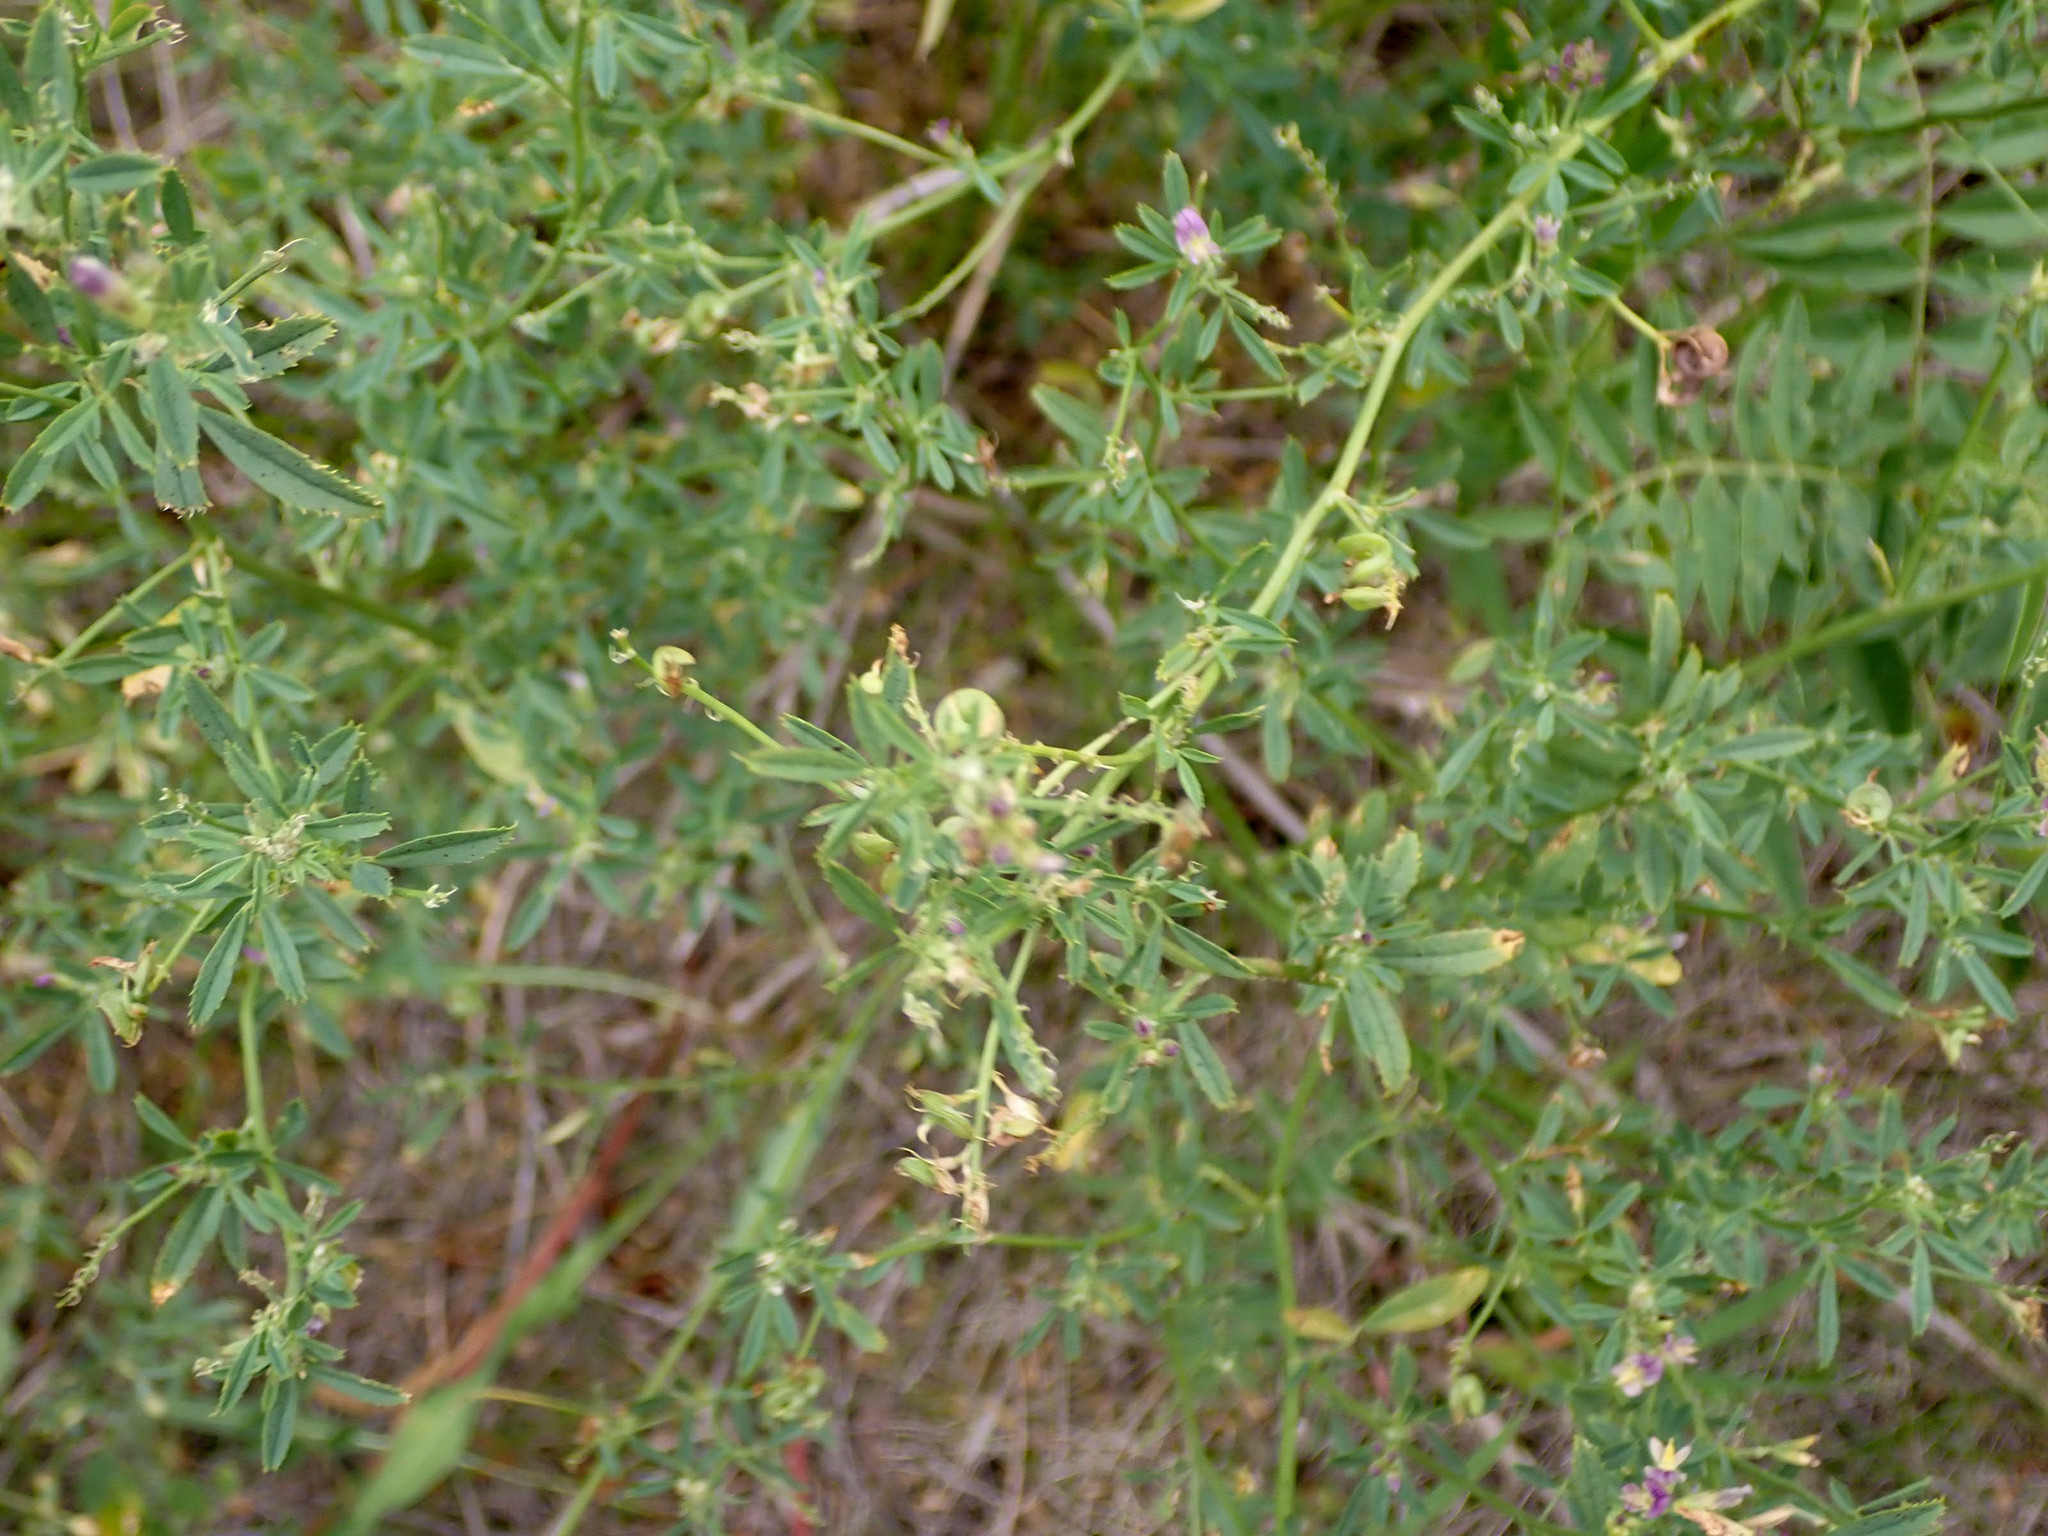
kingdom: Plantae
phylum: Tracheophyta
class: Magnoliopsida
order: Fabales
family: Fabaceae
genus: Medicago
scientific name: Medicago sativa
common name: Alfalfa
